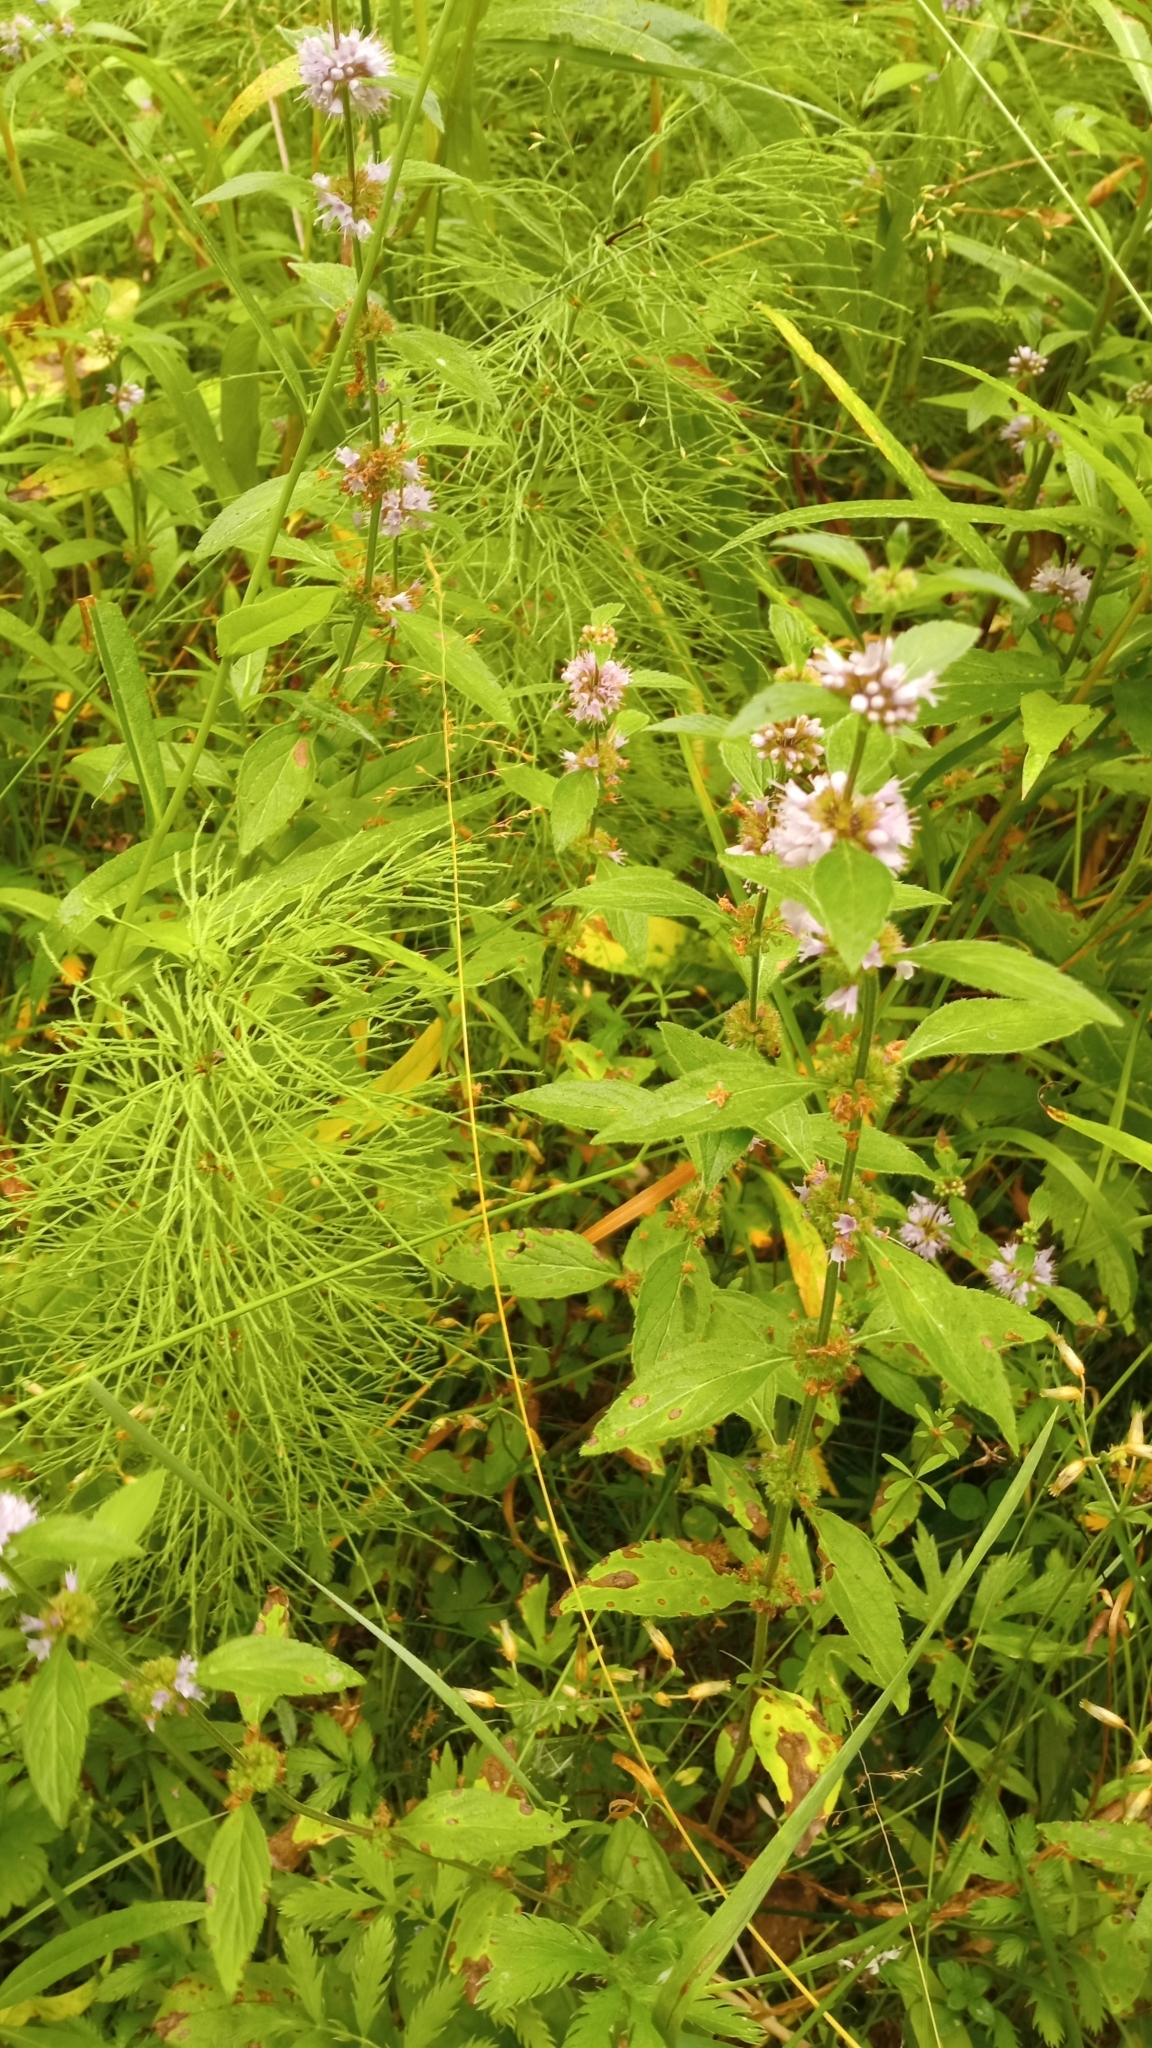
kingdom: Plantae
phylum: Tracheophyta
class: Magnoliopsida
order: Lamiales
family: Lamiaceae
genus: Mentha
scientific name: Mentha arvensis
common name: Corn mint
